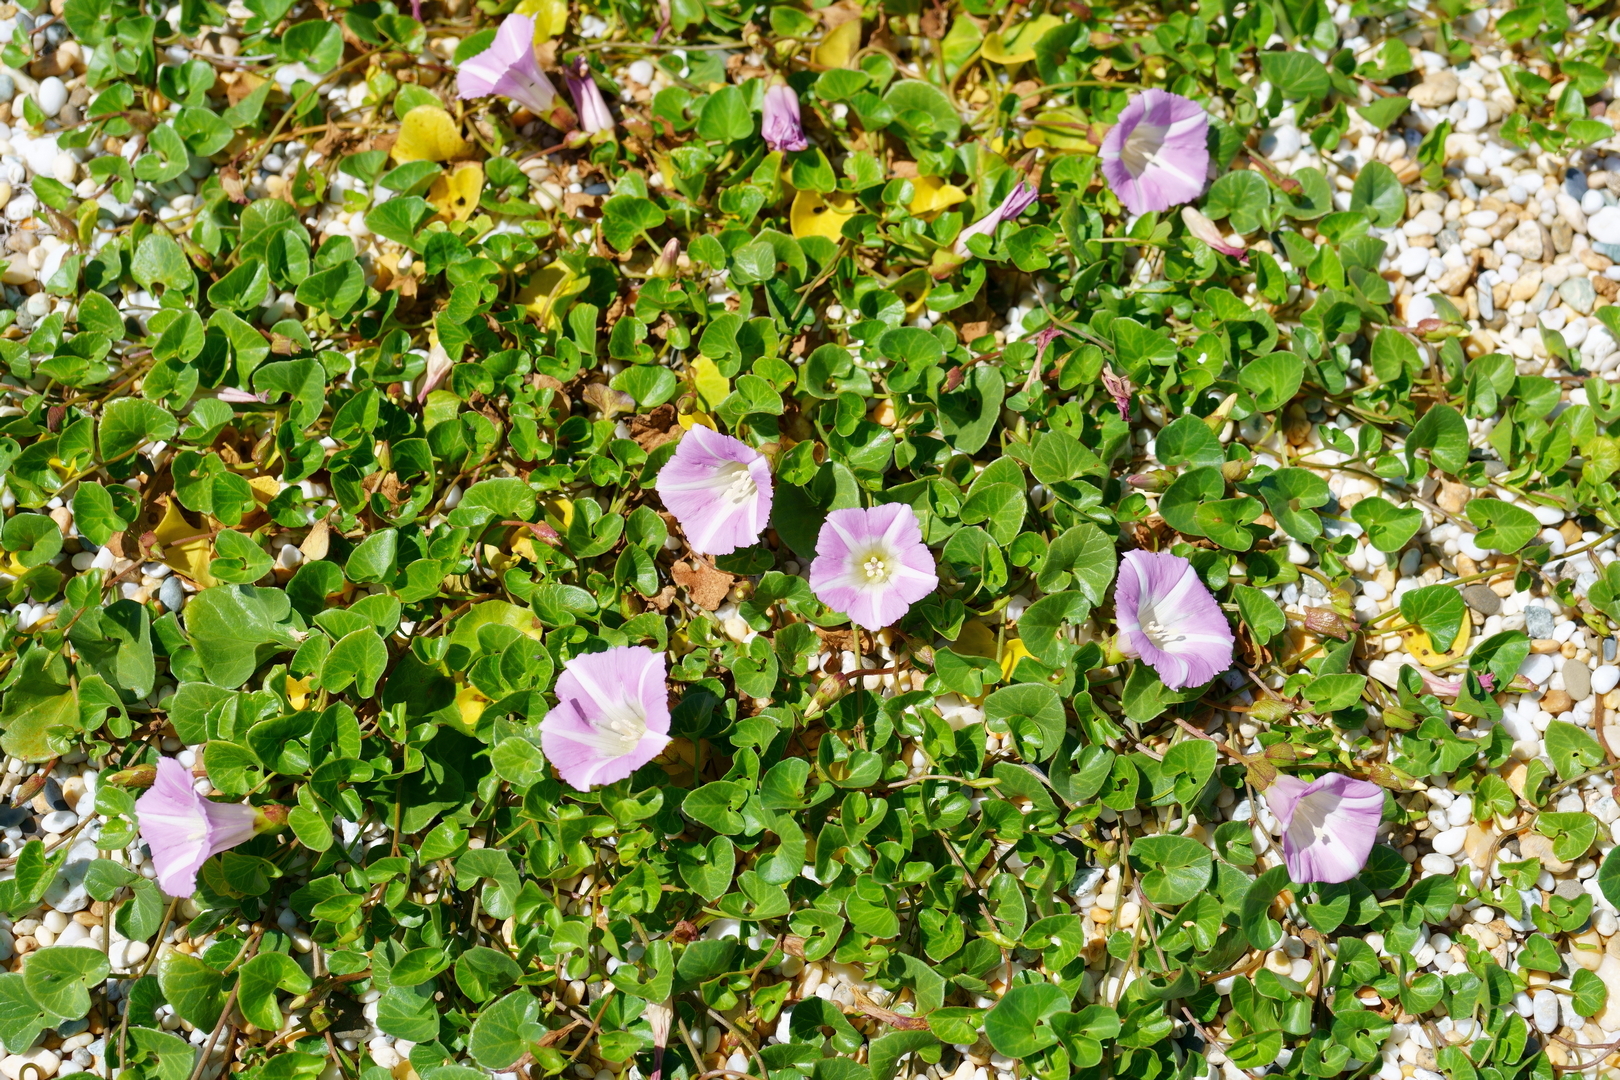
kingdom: Plantae
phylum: Tracheophyta
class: Magnoliopsida
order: Solanales
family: Convolvulaceae
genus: Calystegia
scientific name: Calystegia soldanella
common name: Sea bindweed
